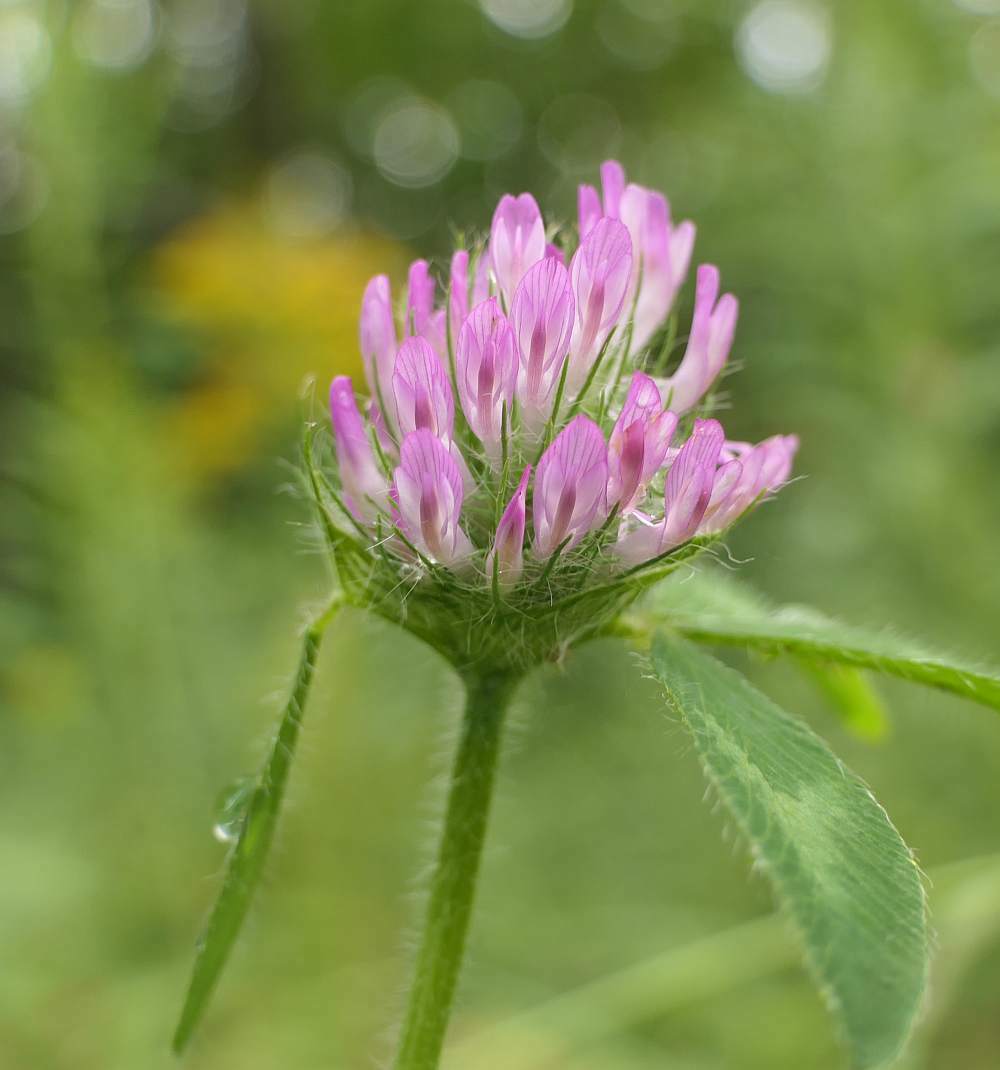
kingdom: Plantae
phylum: Tracheophyta
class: Magnoliopsida
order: Fabales
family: Fabaceae
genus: Trifolium
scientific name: Trifolium pratense
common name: Red clover
